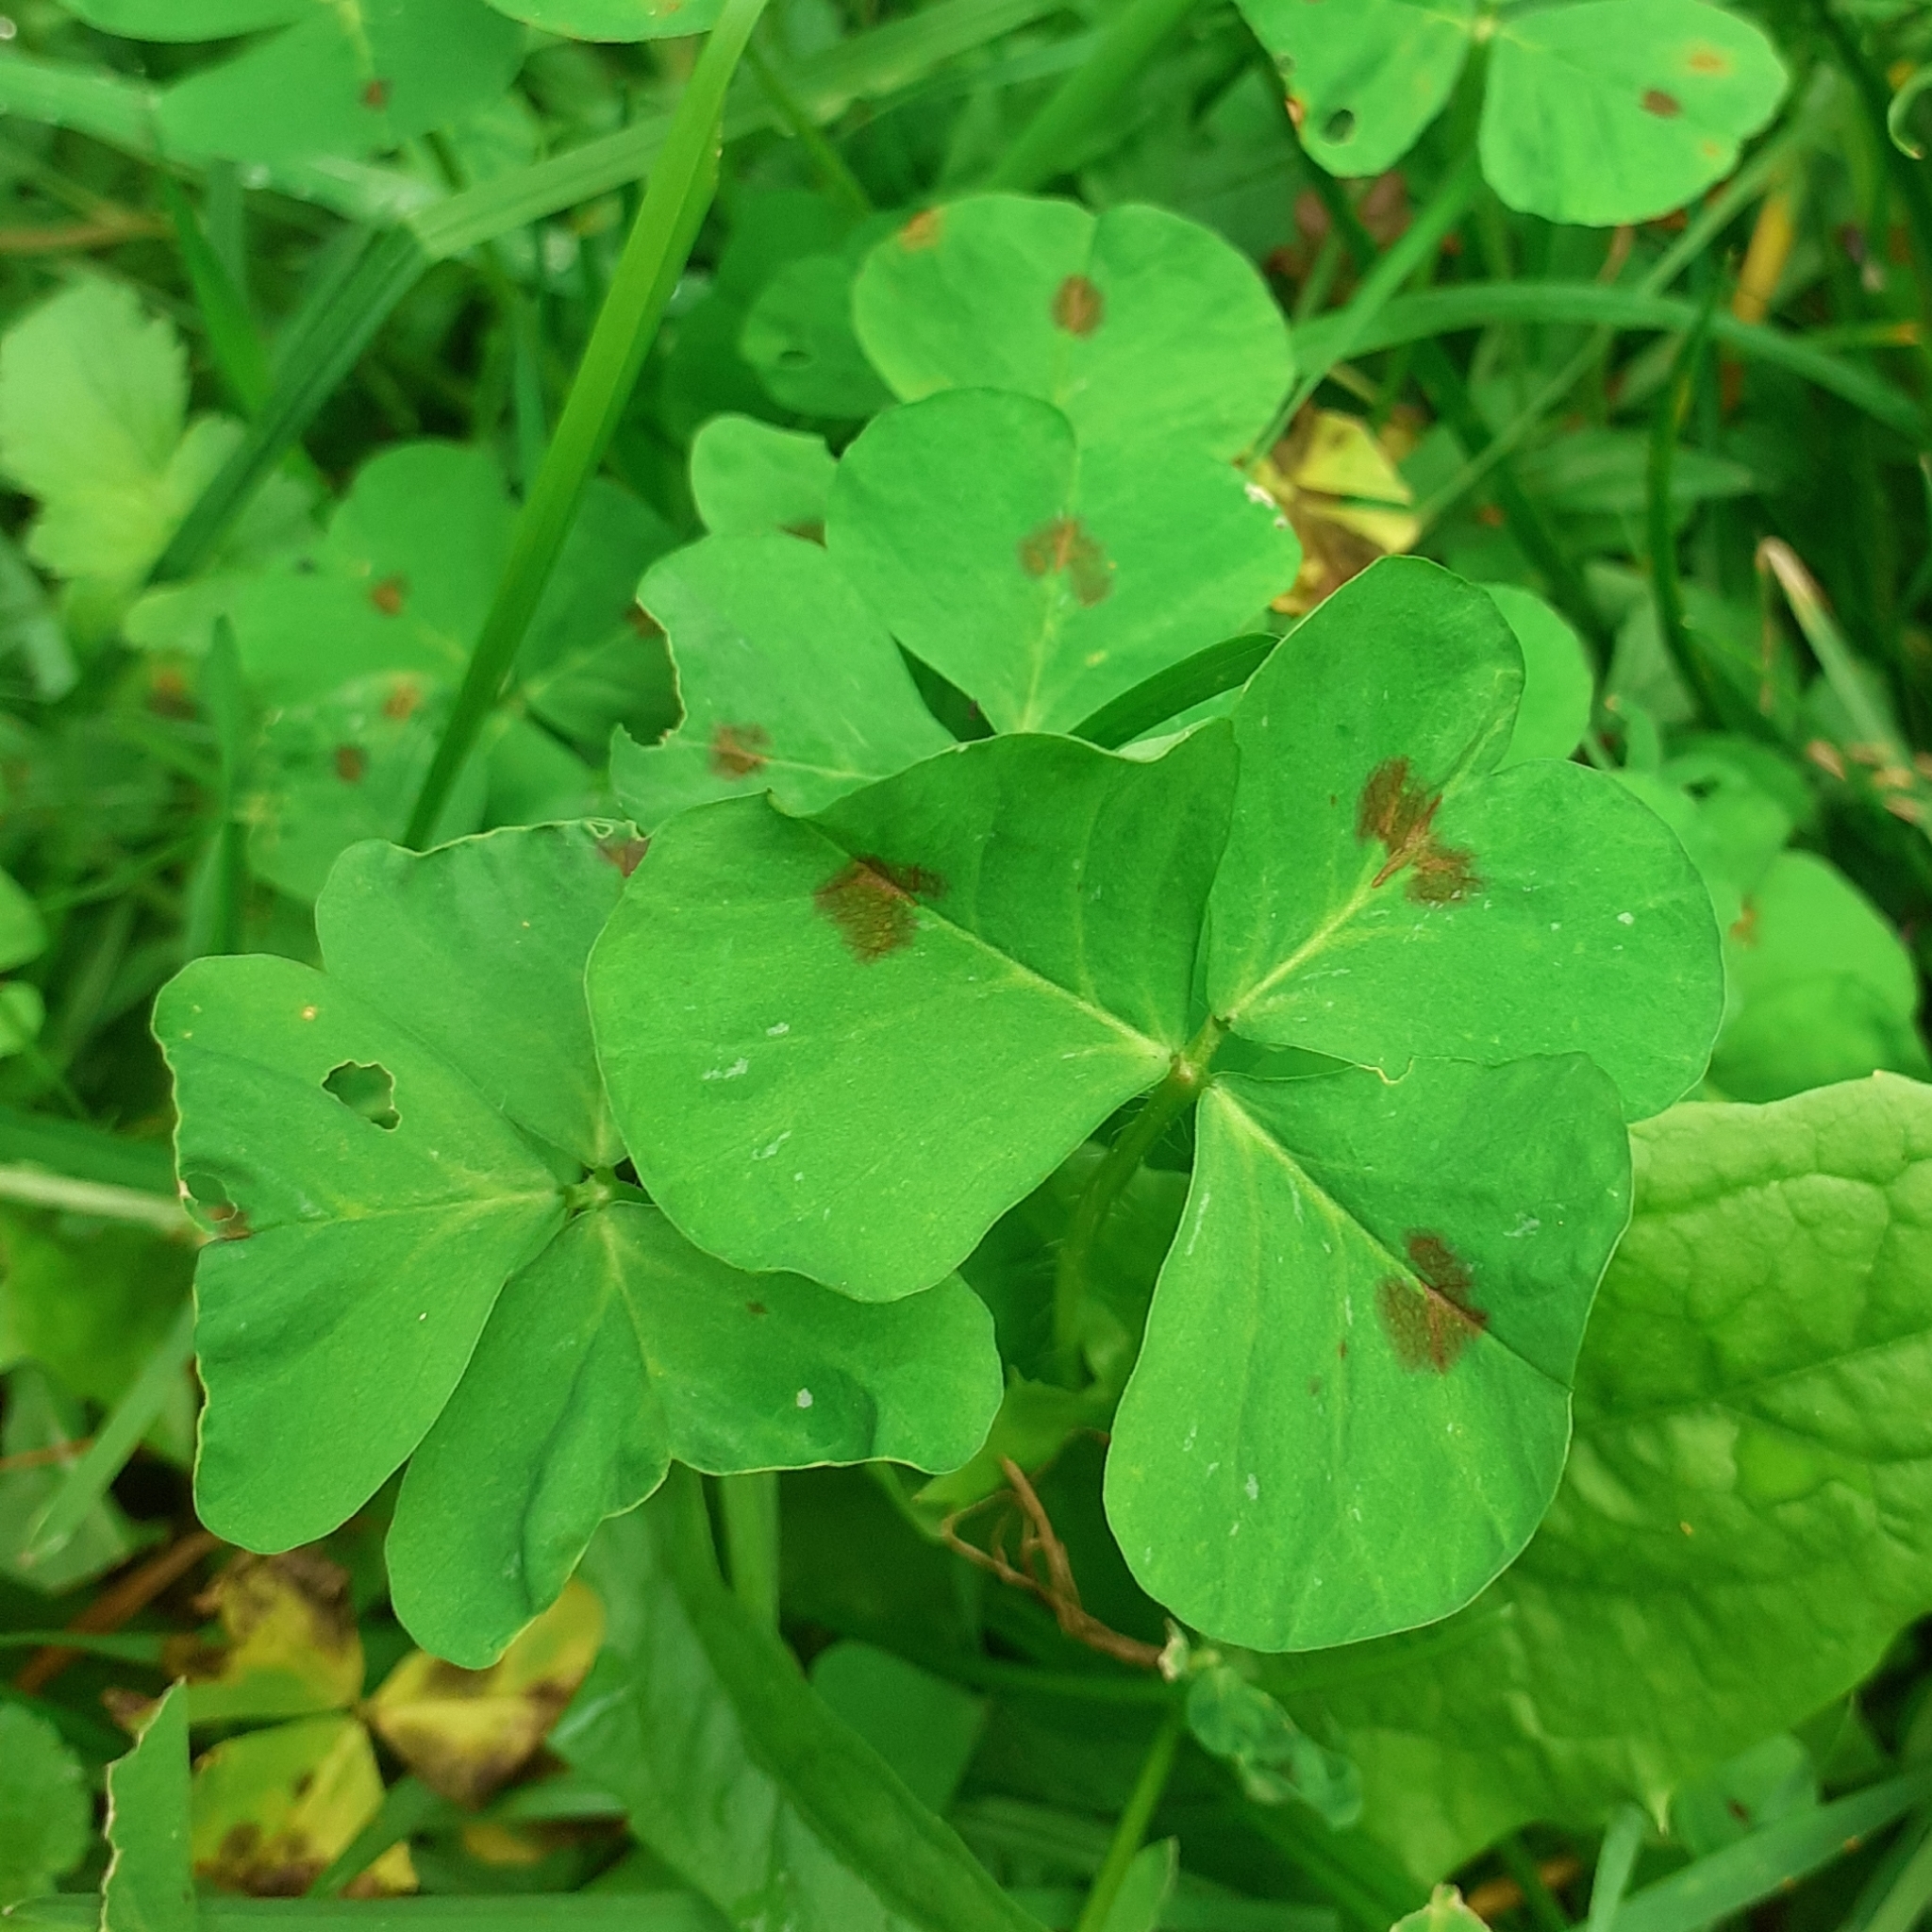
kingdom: Plantae
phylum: Tracheophyta
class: Magnoliopsida
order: Fabales
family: Fabaceae
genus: Medicago
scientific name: Medicago arabica
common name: Spotted medick
